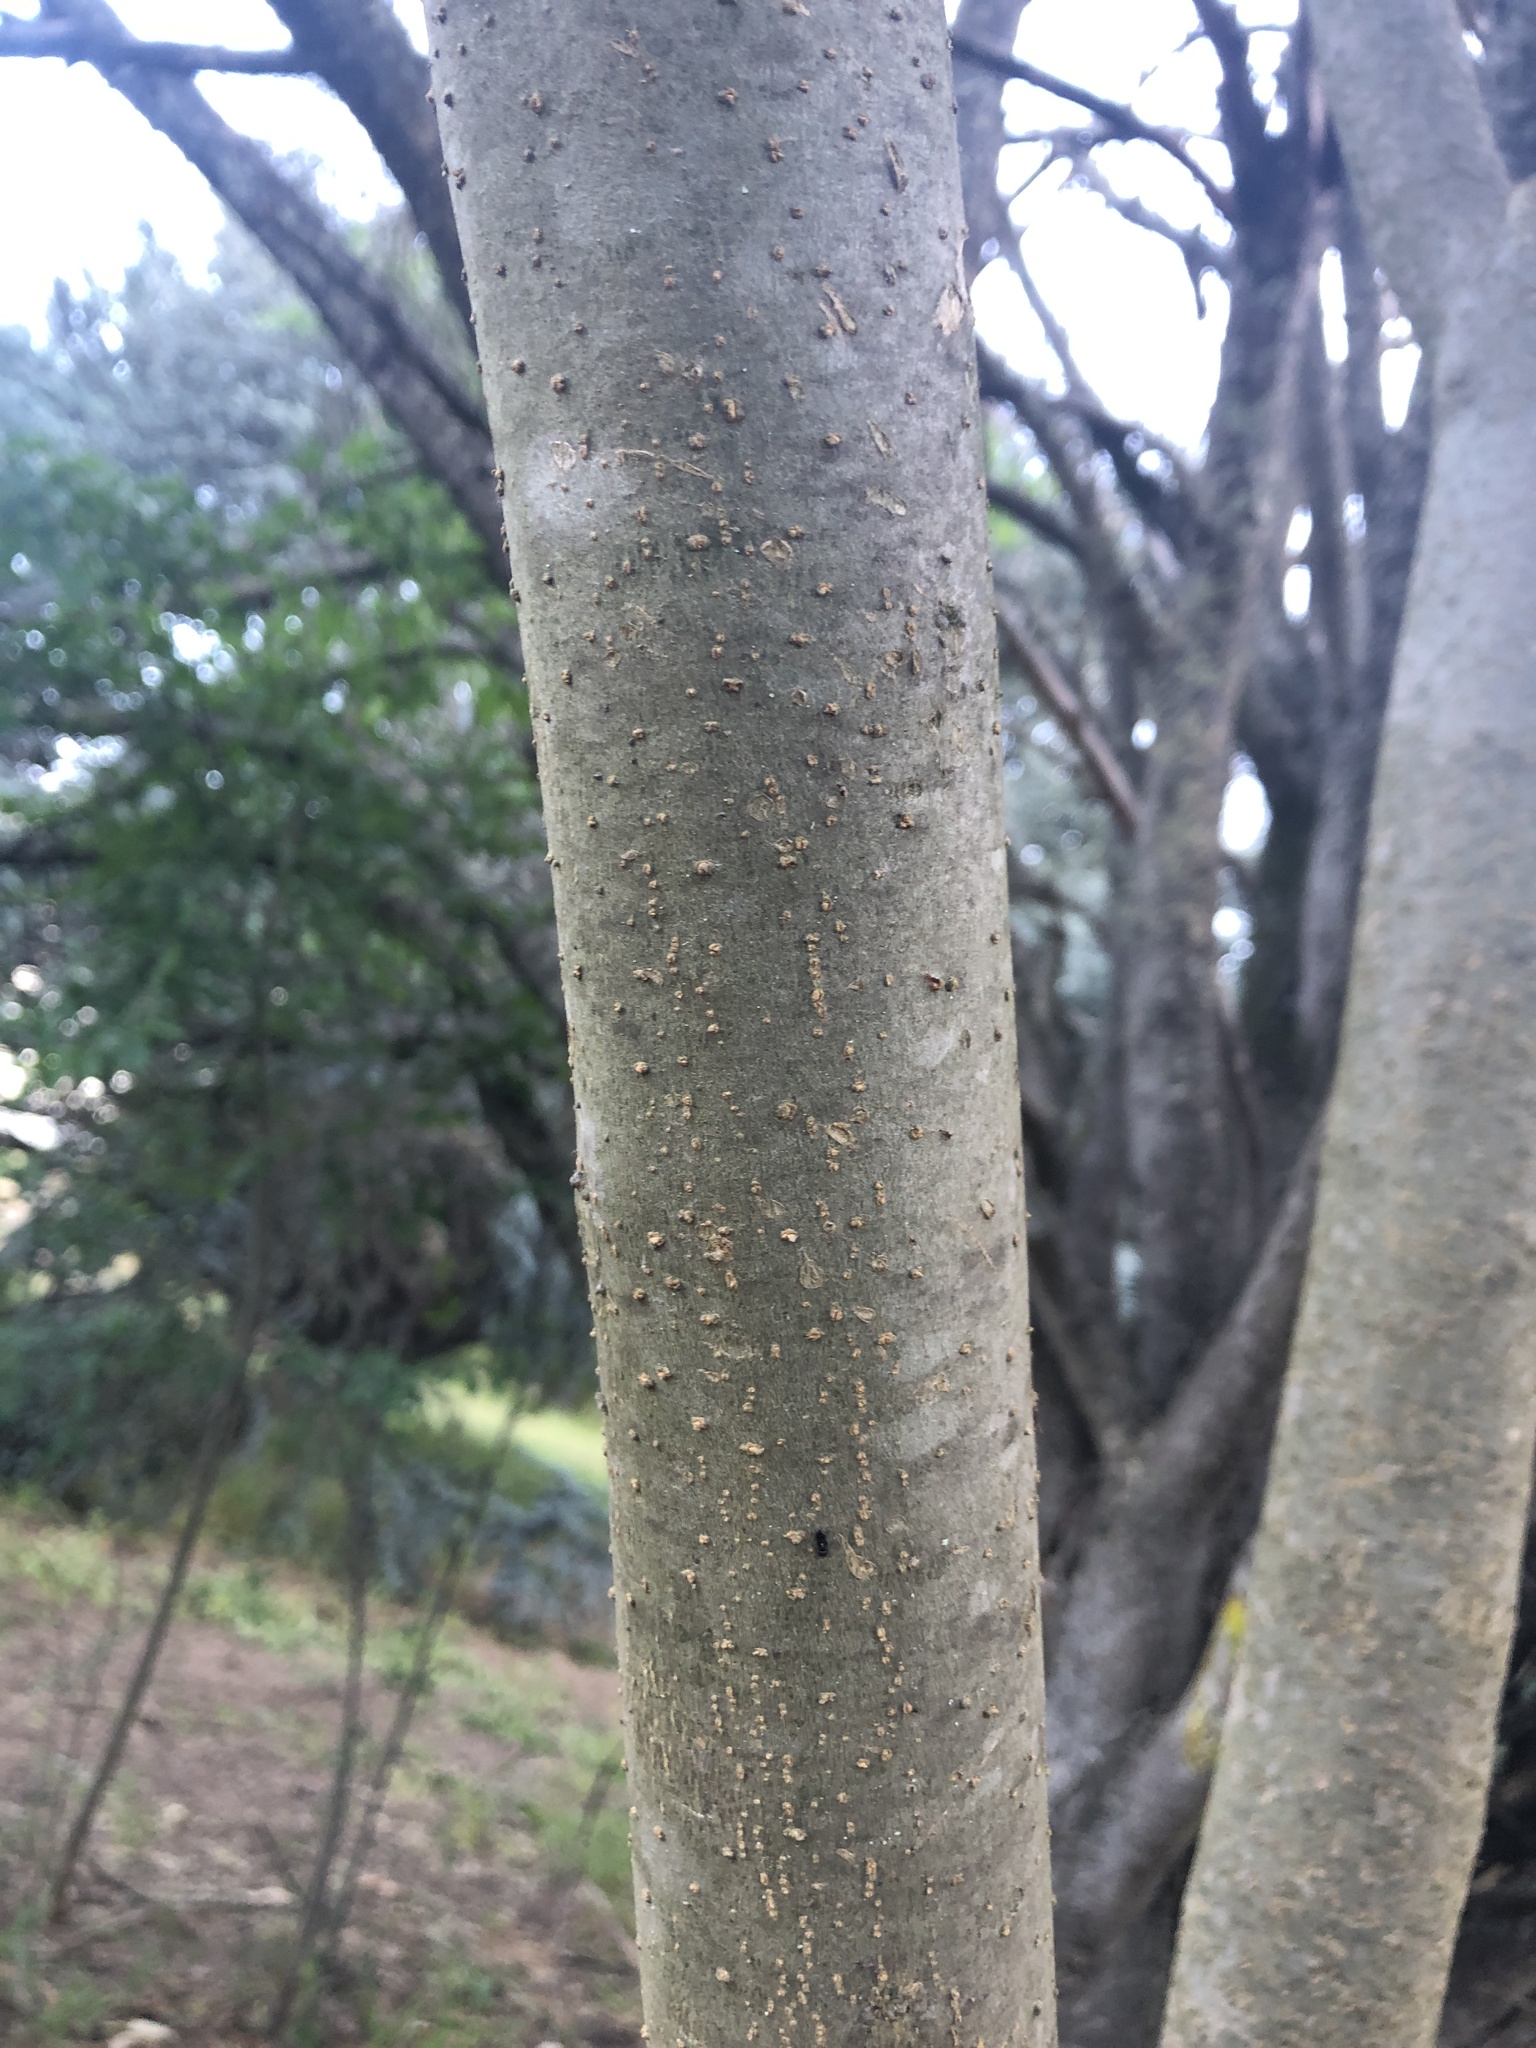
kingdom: Plantae
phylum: Tracheophyta
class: Magnoliopsida
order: Solanales
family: Solanaceae
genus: Solanum
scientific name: Solanum mauritianum
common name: Earleaf nightshade
